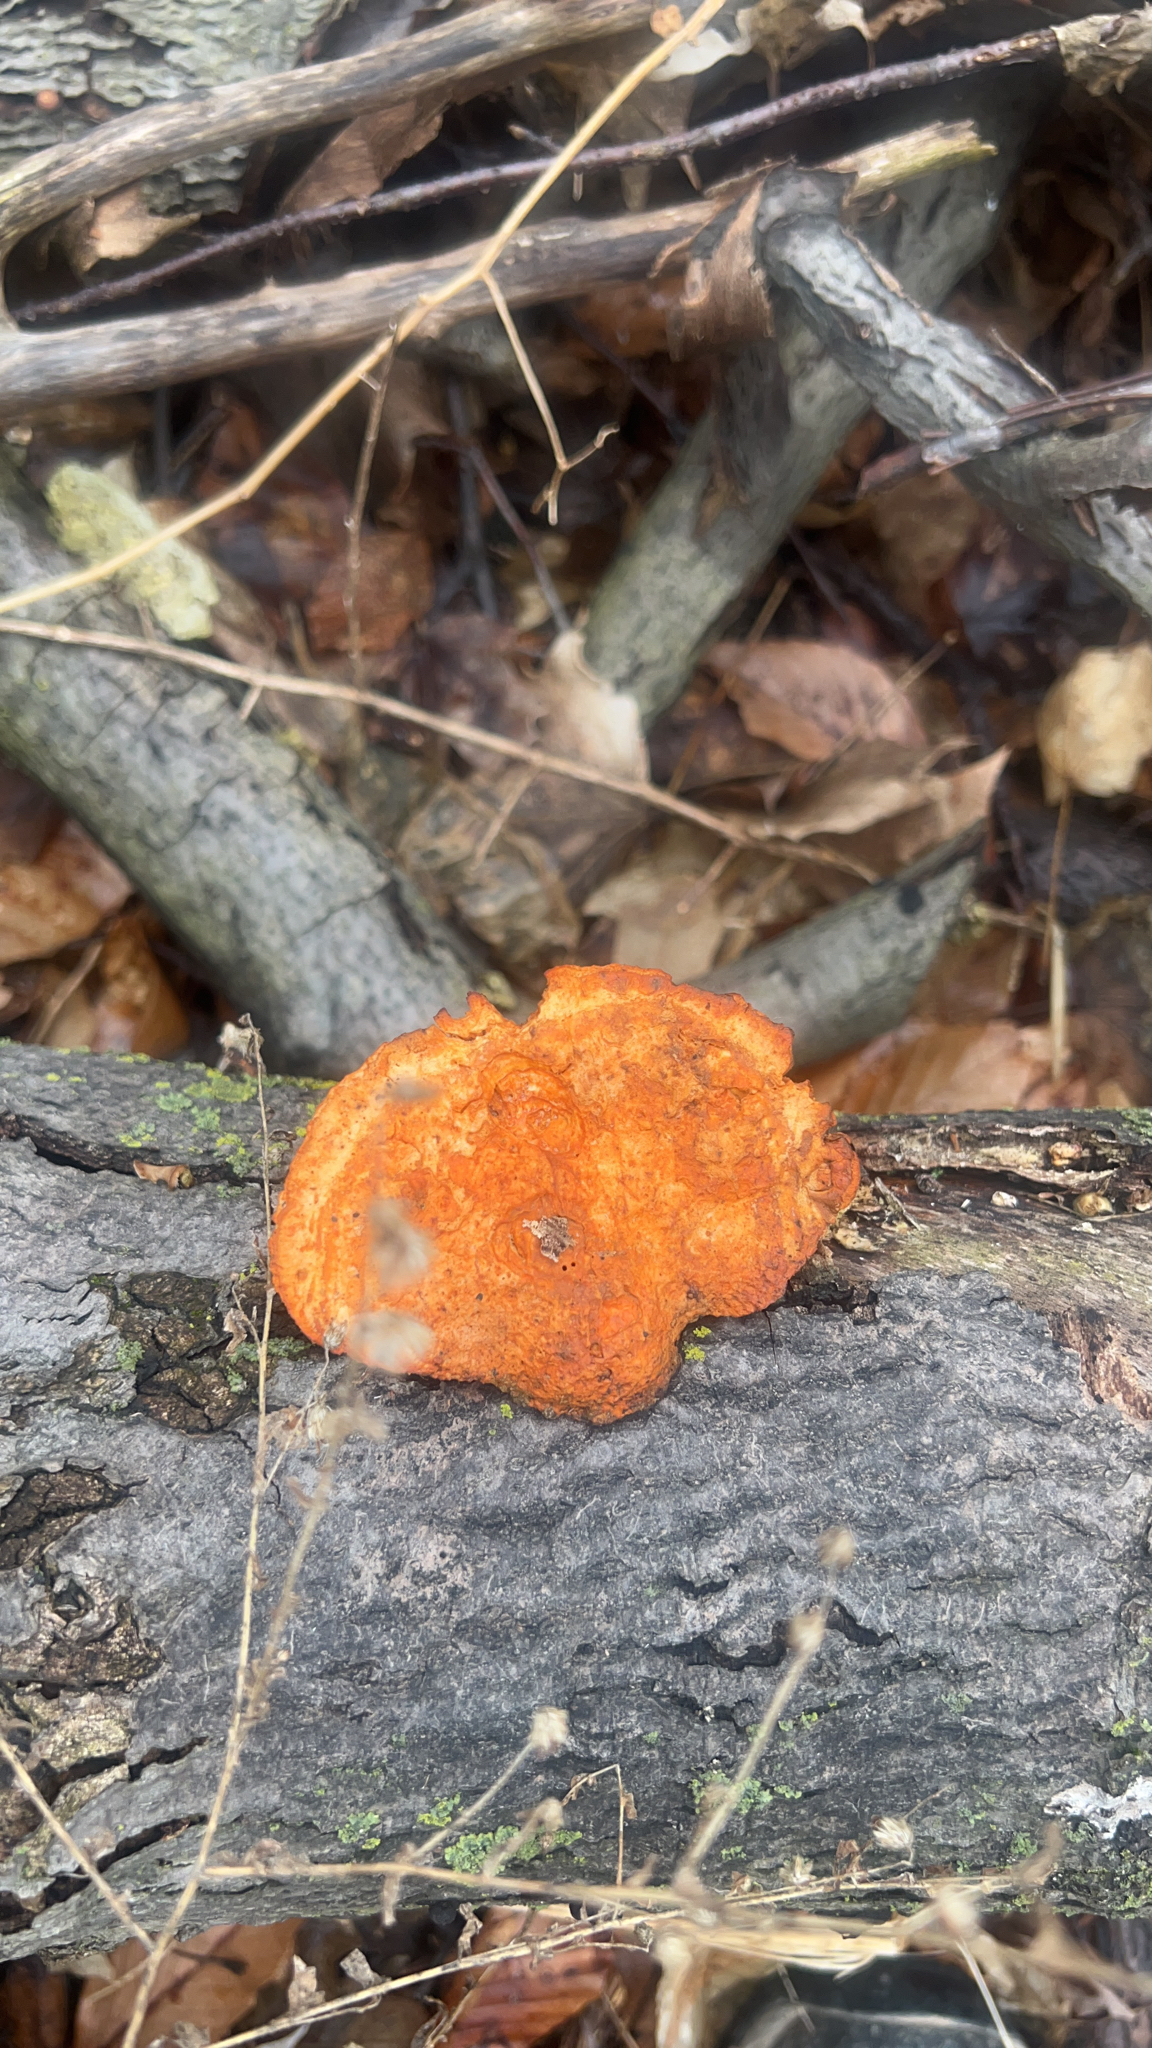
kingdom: Fungi
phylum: Basidiomycota
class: Agaricomycetes
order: Polyporales
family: Polyporaceae
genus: Trametes
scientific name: Trametes cinnabarina
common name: Northern cinnabar polypore
